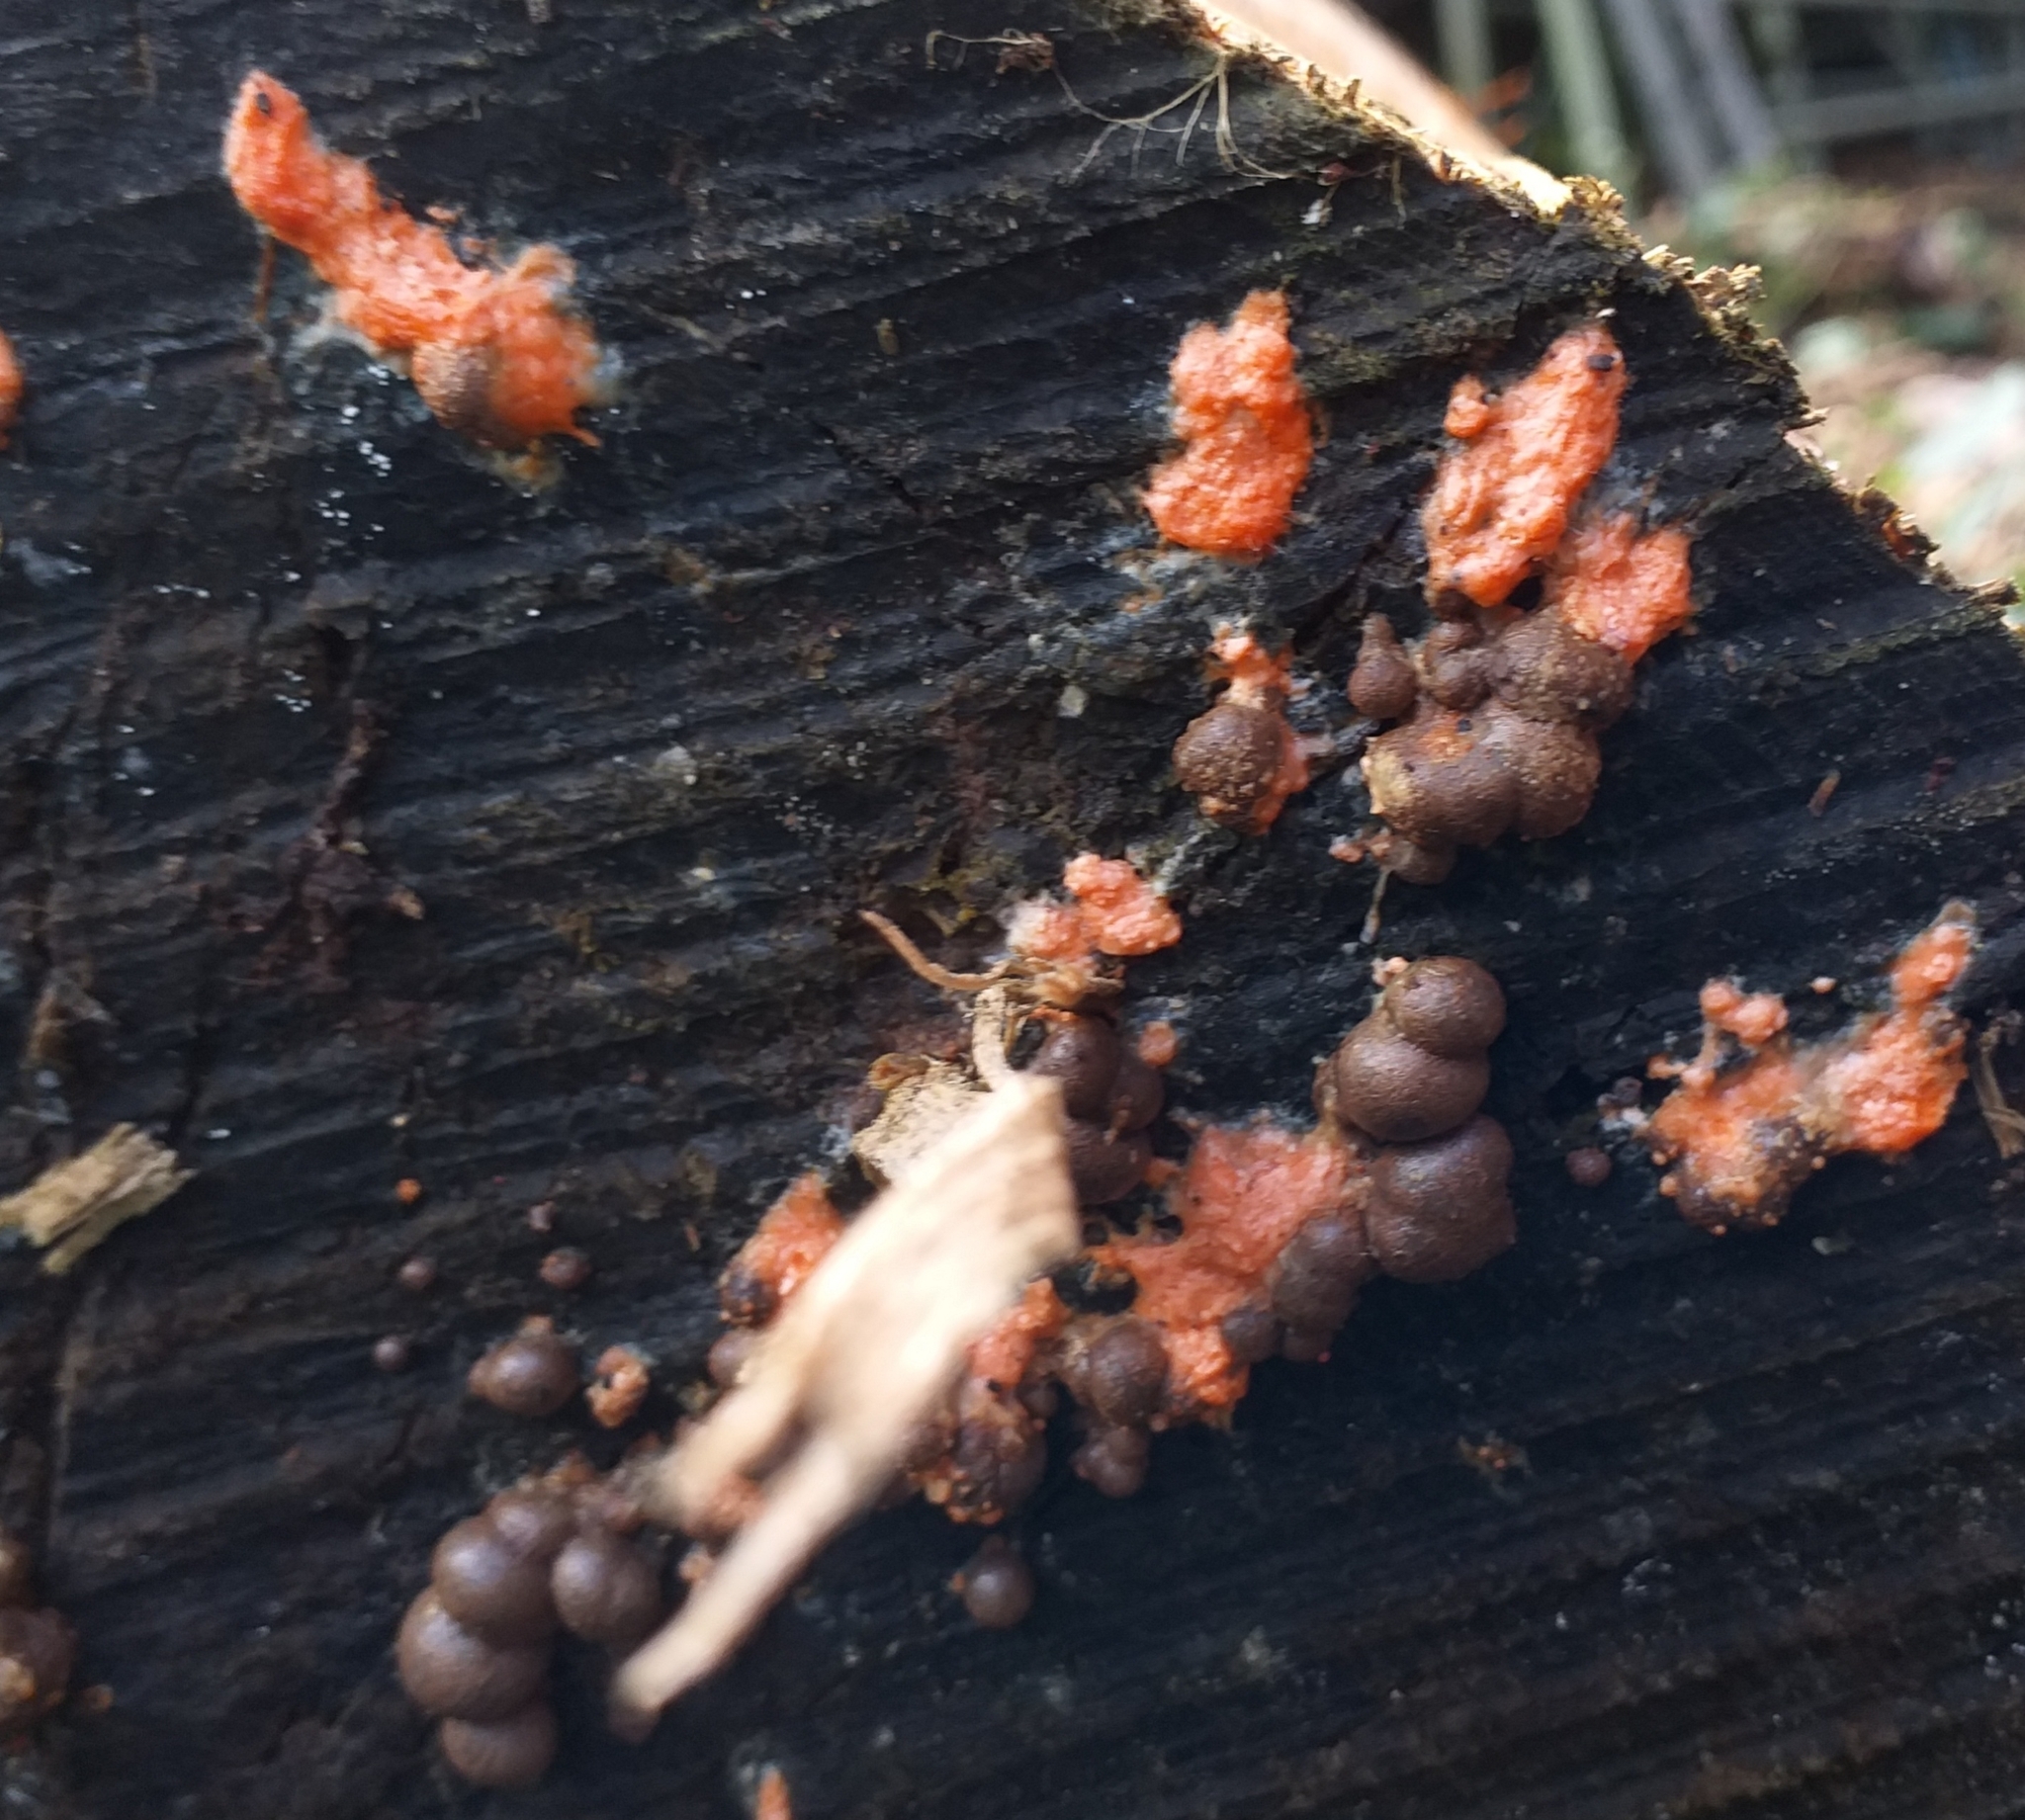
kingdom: Protozoa
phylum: Mycetozoa
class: Myxomycetes
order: Cribrariales
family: Tubiferaceae
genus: Lycogala
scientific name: Lycogala epidendrum
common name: Wolf's milk
